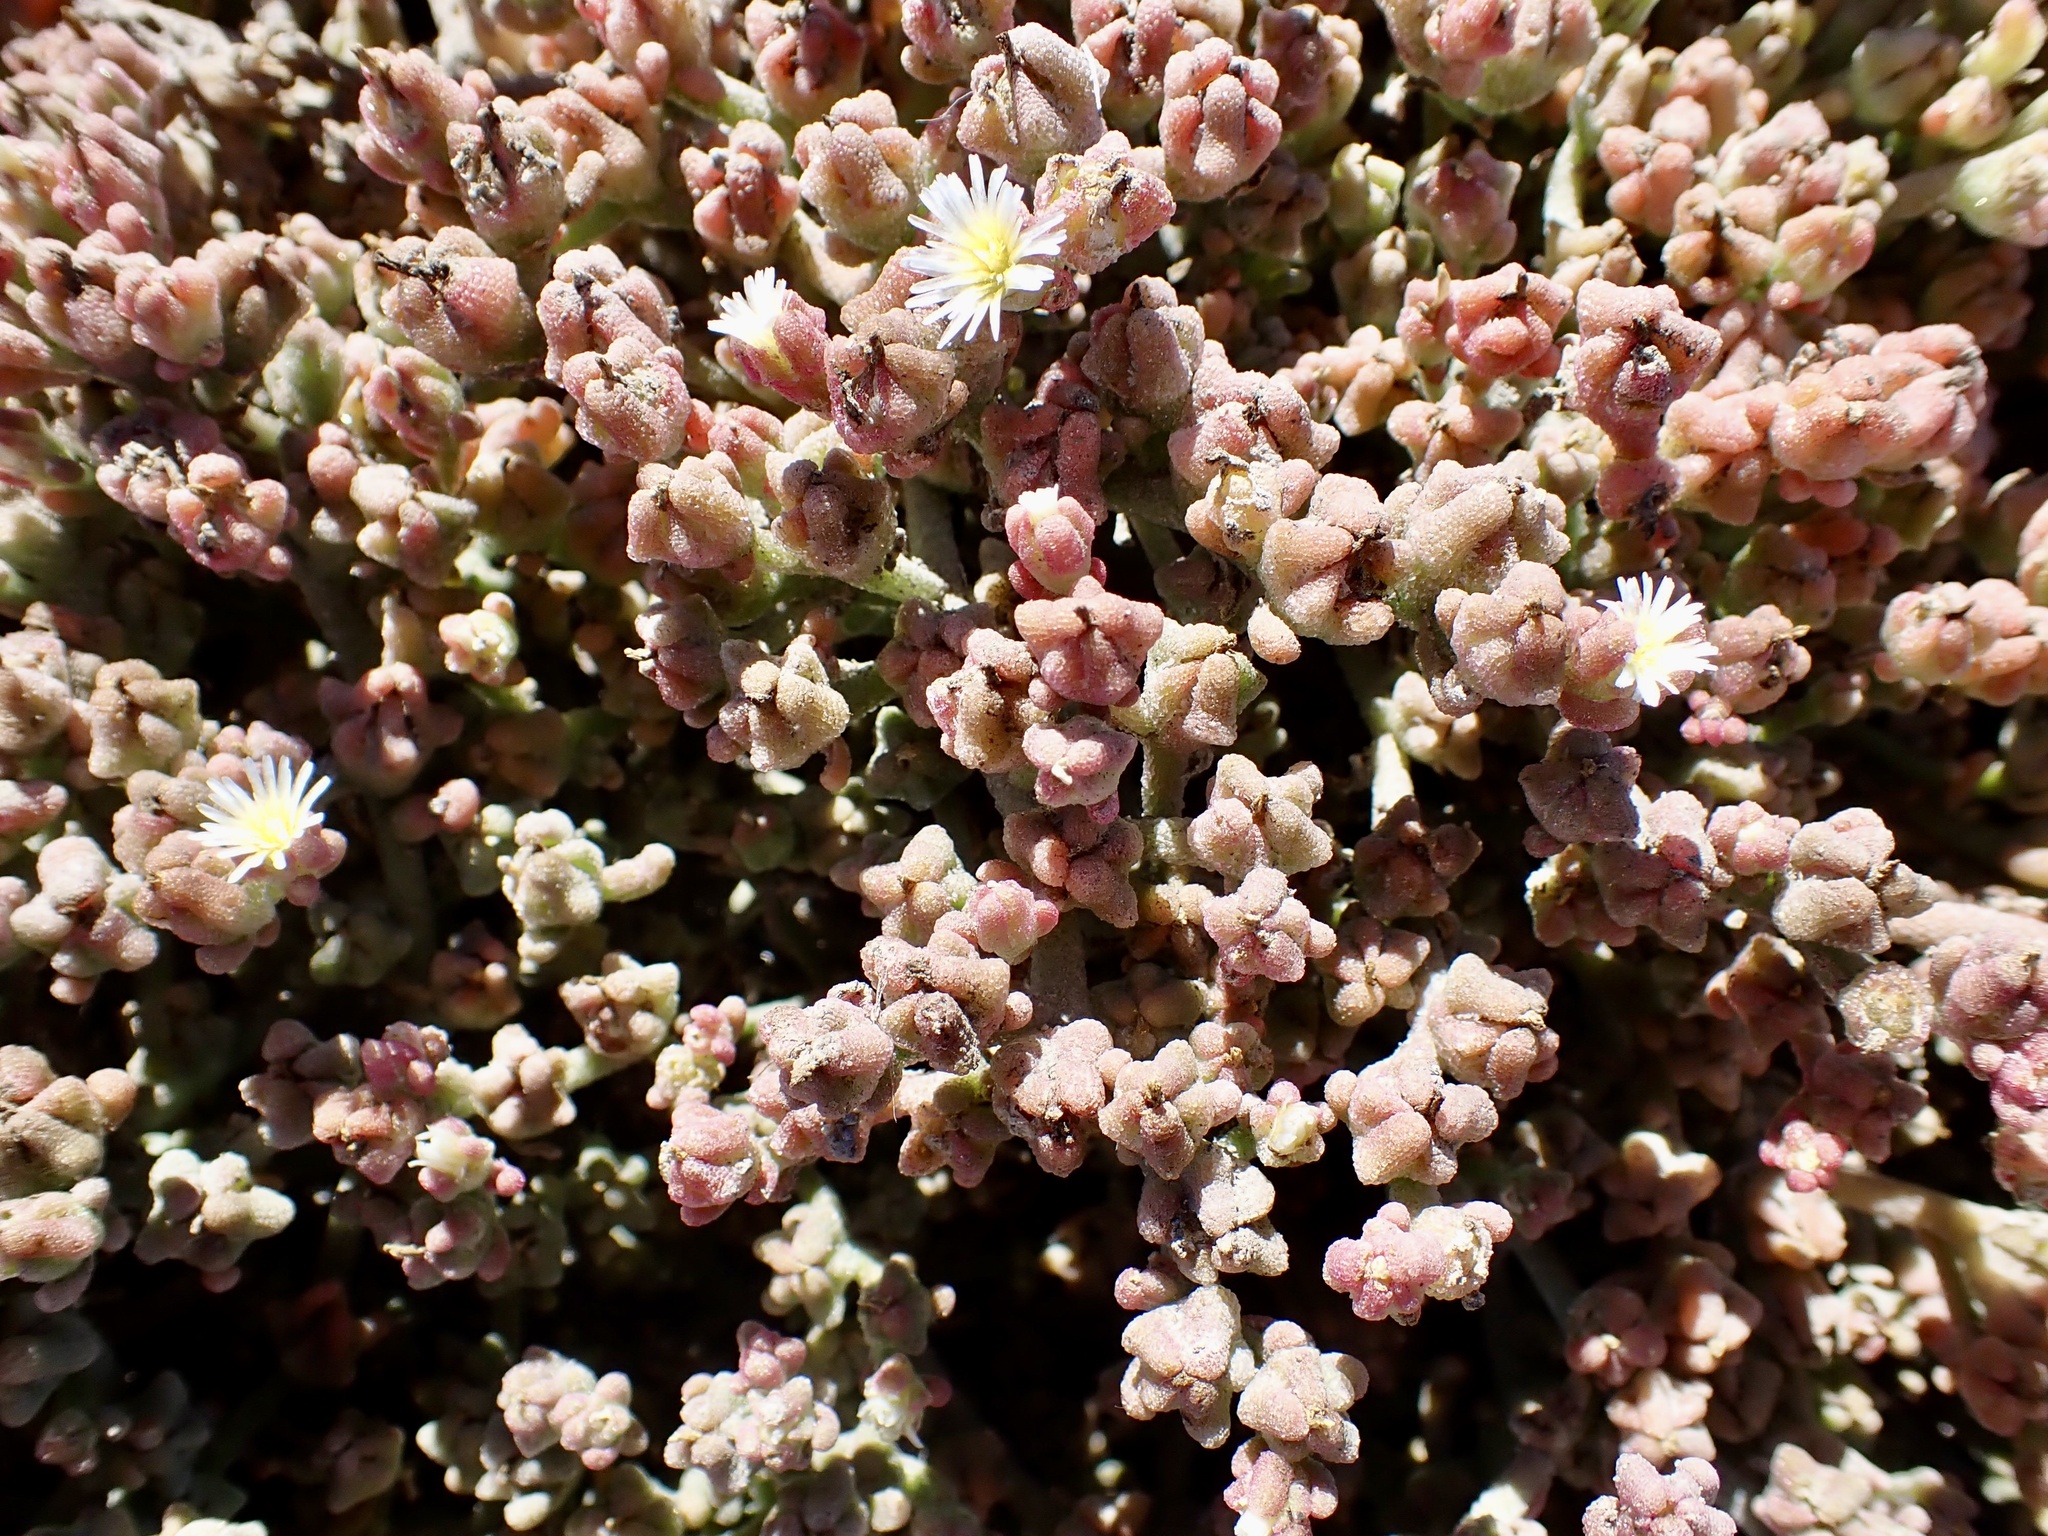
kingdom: Plantae
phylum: Tracheophyta
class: Magnoliopsida
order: Caryophyllales
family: Aizoaceae
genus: Mesembryanthemum
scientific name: Mesembryanthemum nodiflorum
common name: Slenderleaf iceplant
